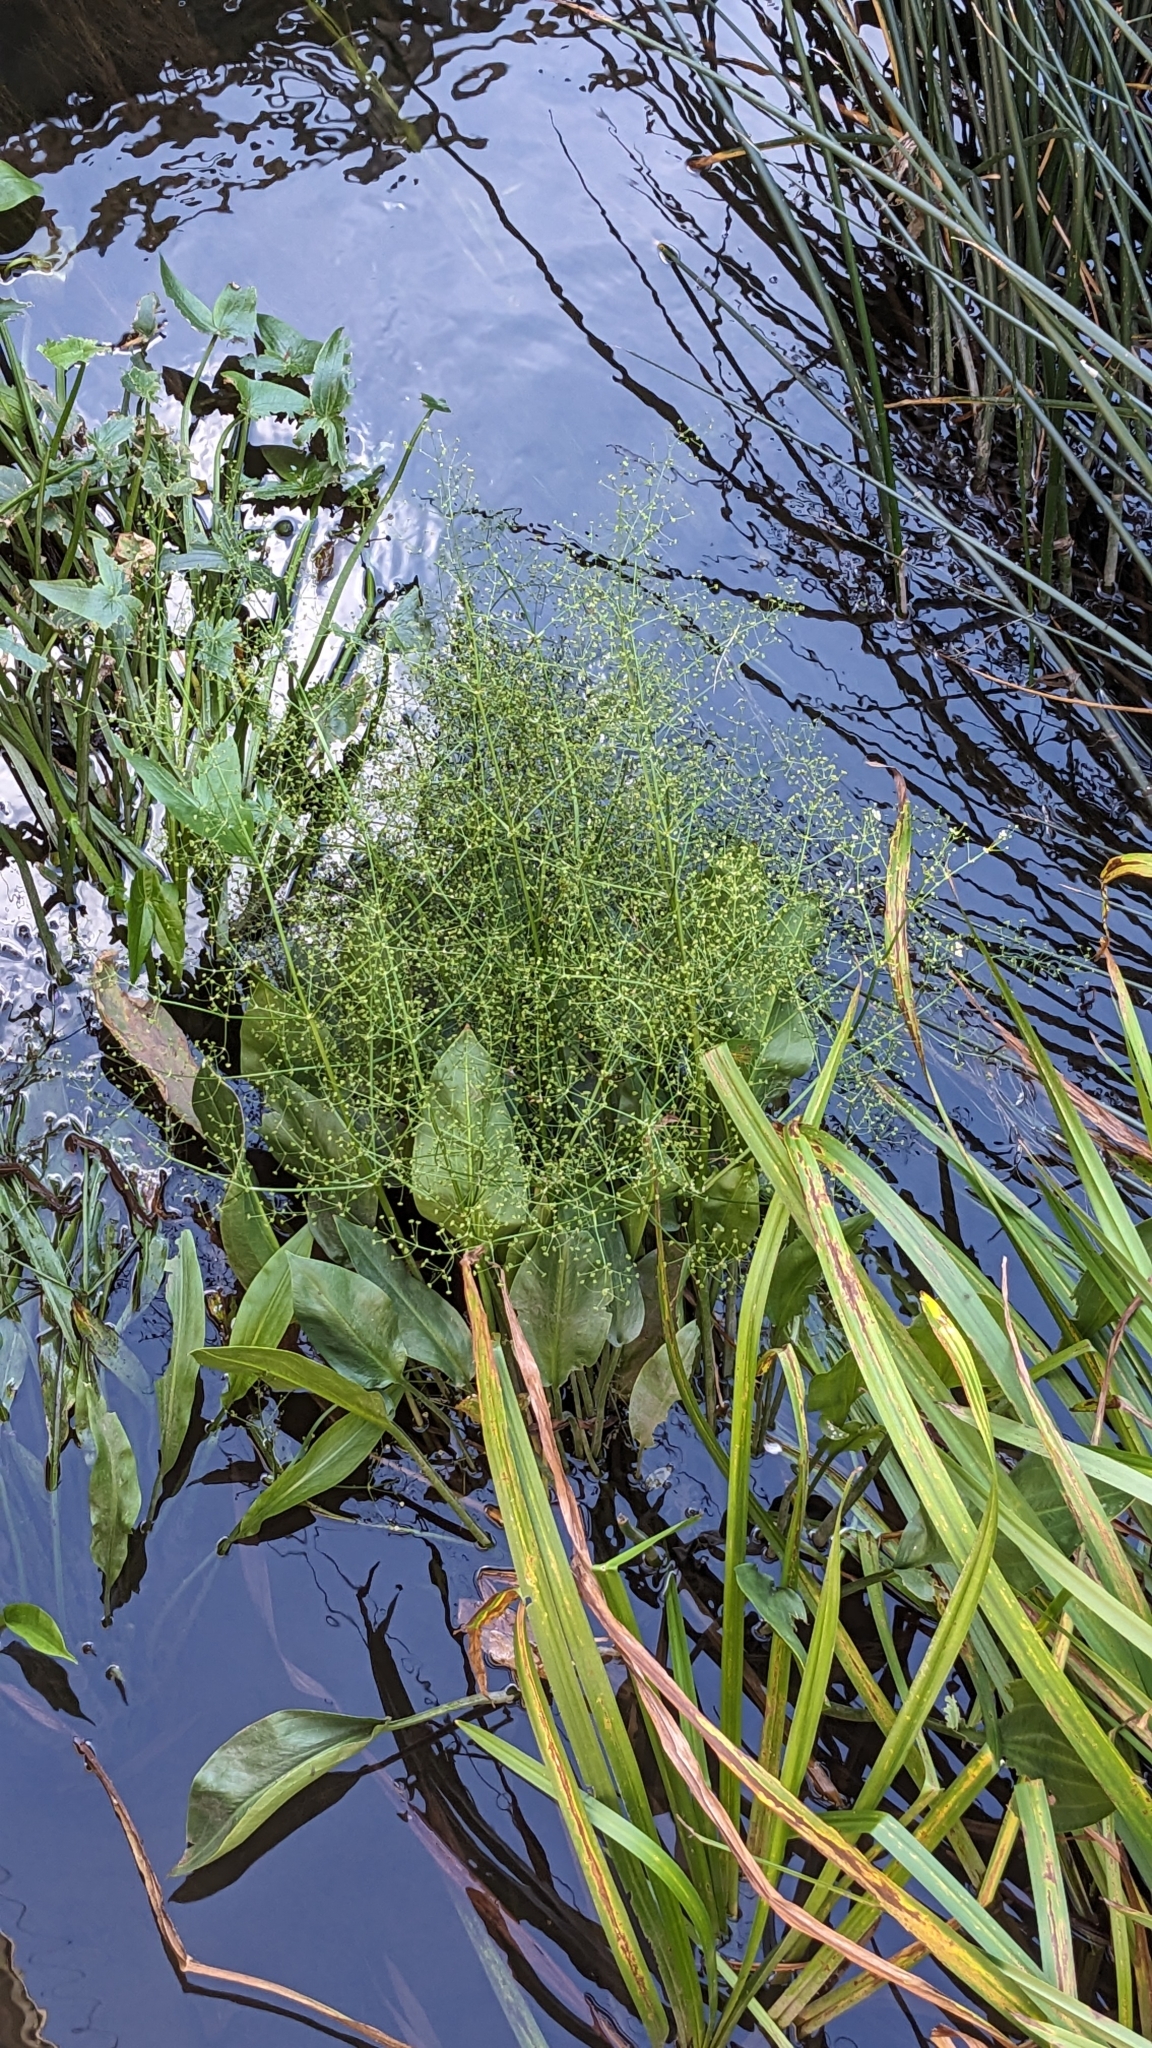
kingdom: Plantae
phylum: Tracheophyta
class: Liliopsida
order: Alismatales
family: Alismataceae
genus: Alisma
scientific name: Alisma plantago-aquatica
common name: Water-plantain
